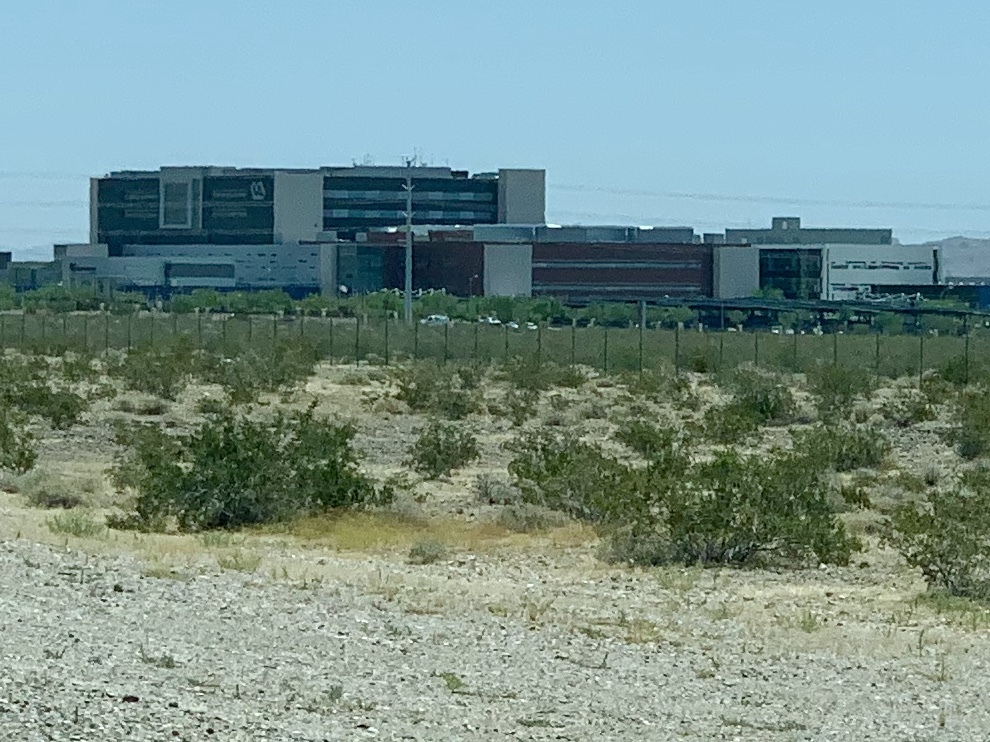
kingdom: Plantae
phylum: Tracheophyta
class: Magnoliopsida
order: Zygophyllales
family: Zygophyllaceae
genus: Larrea
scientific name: Larrea tridentata
